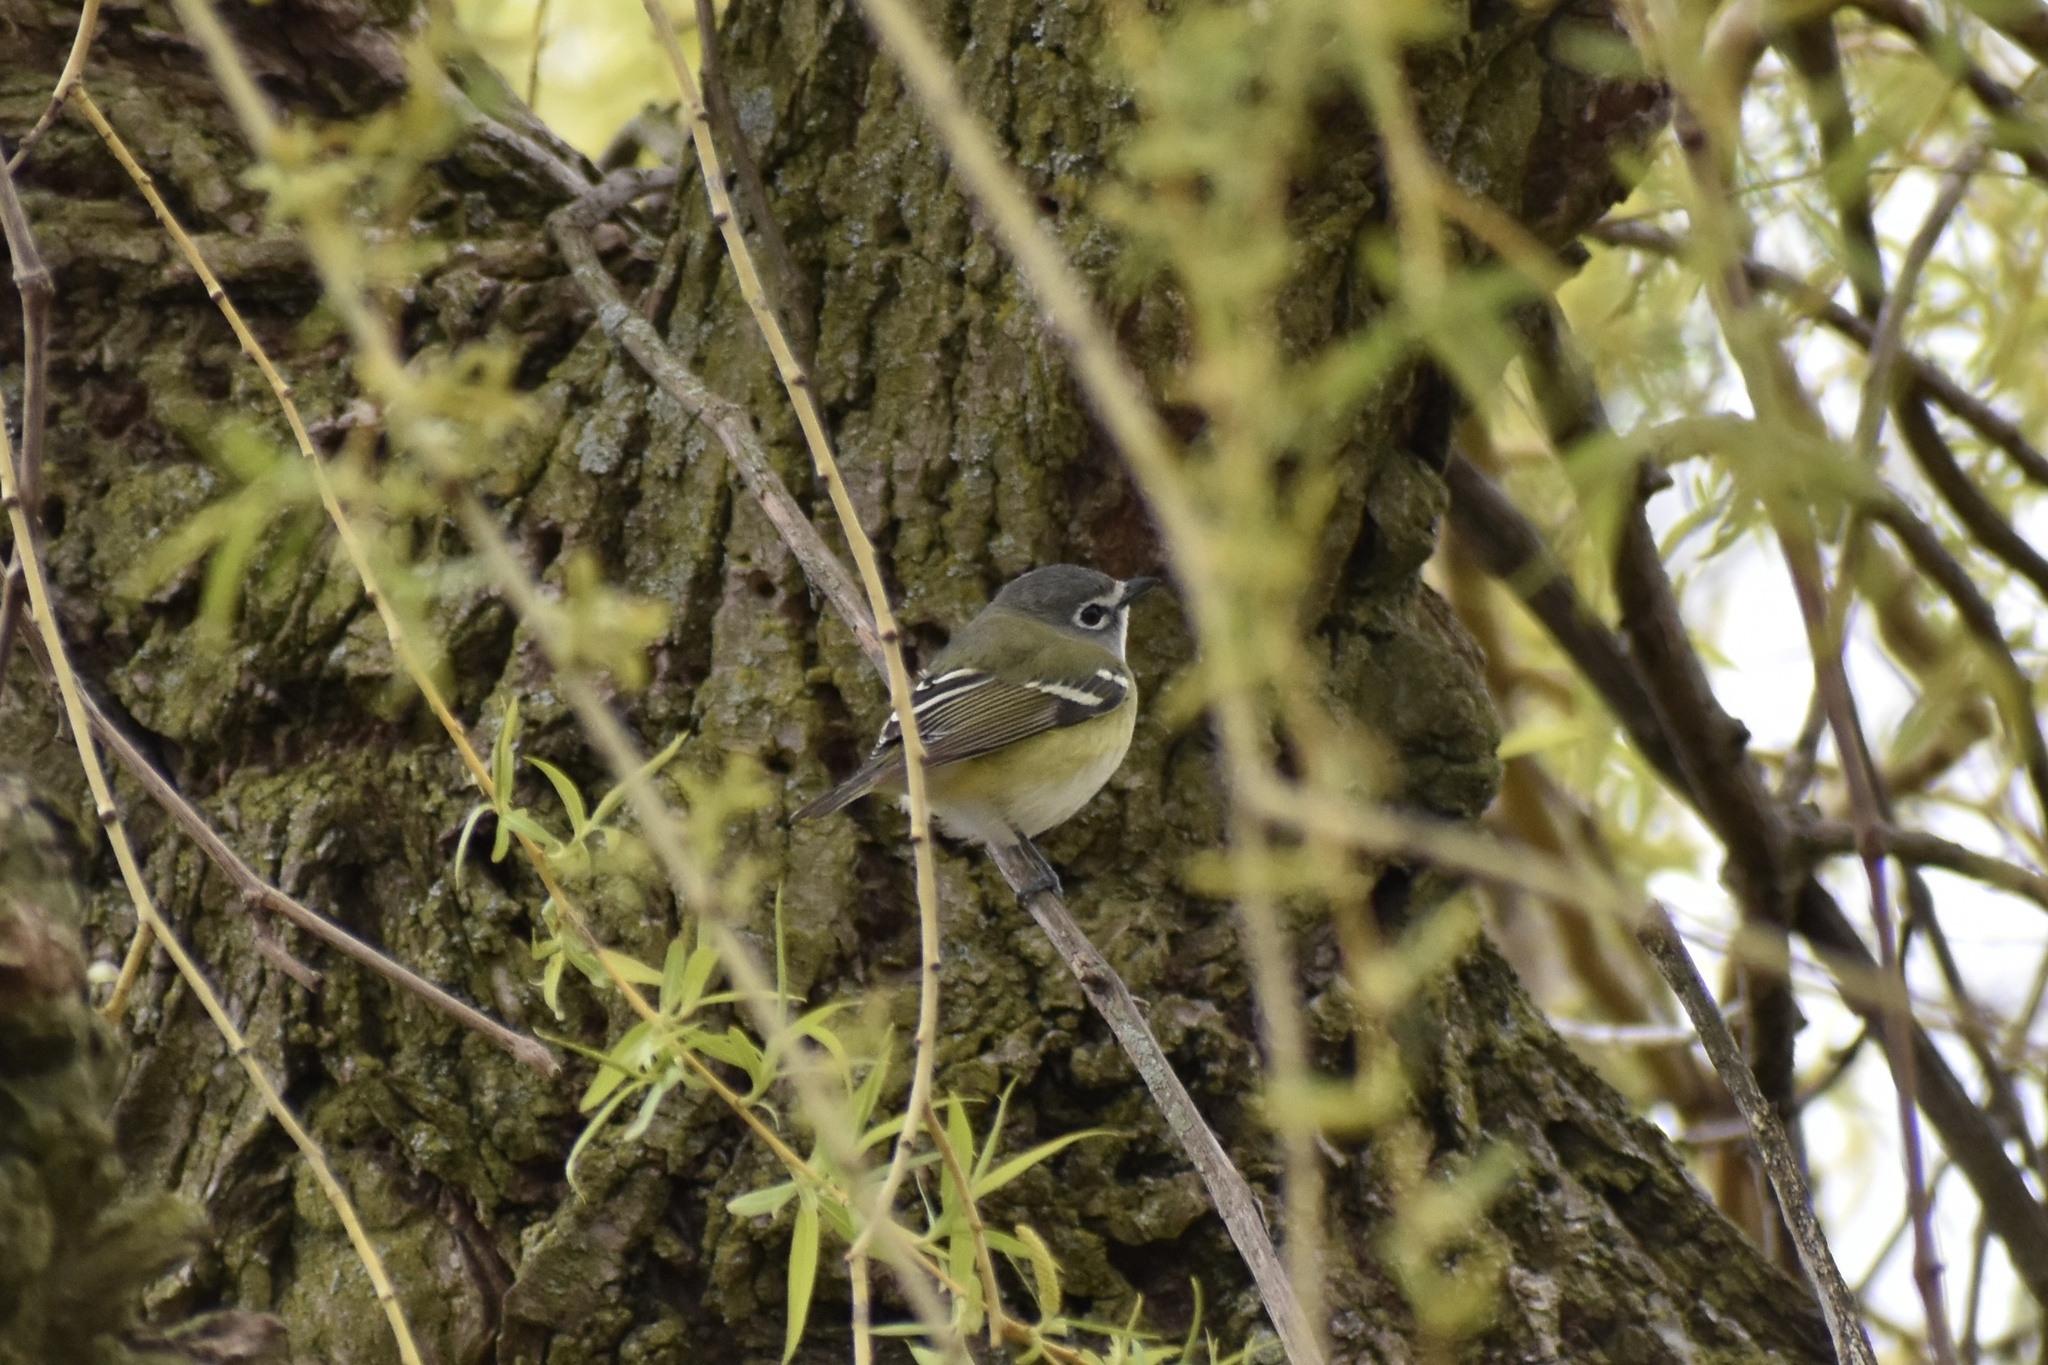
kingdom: Animalia
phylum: Chordata
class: Aves
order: Passeriformes
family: Vireonidae
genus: Vireo
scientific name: Vireo solitarius
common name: Blue-headed vireo
